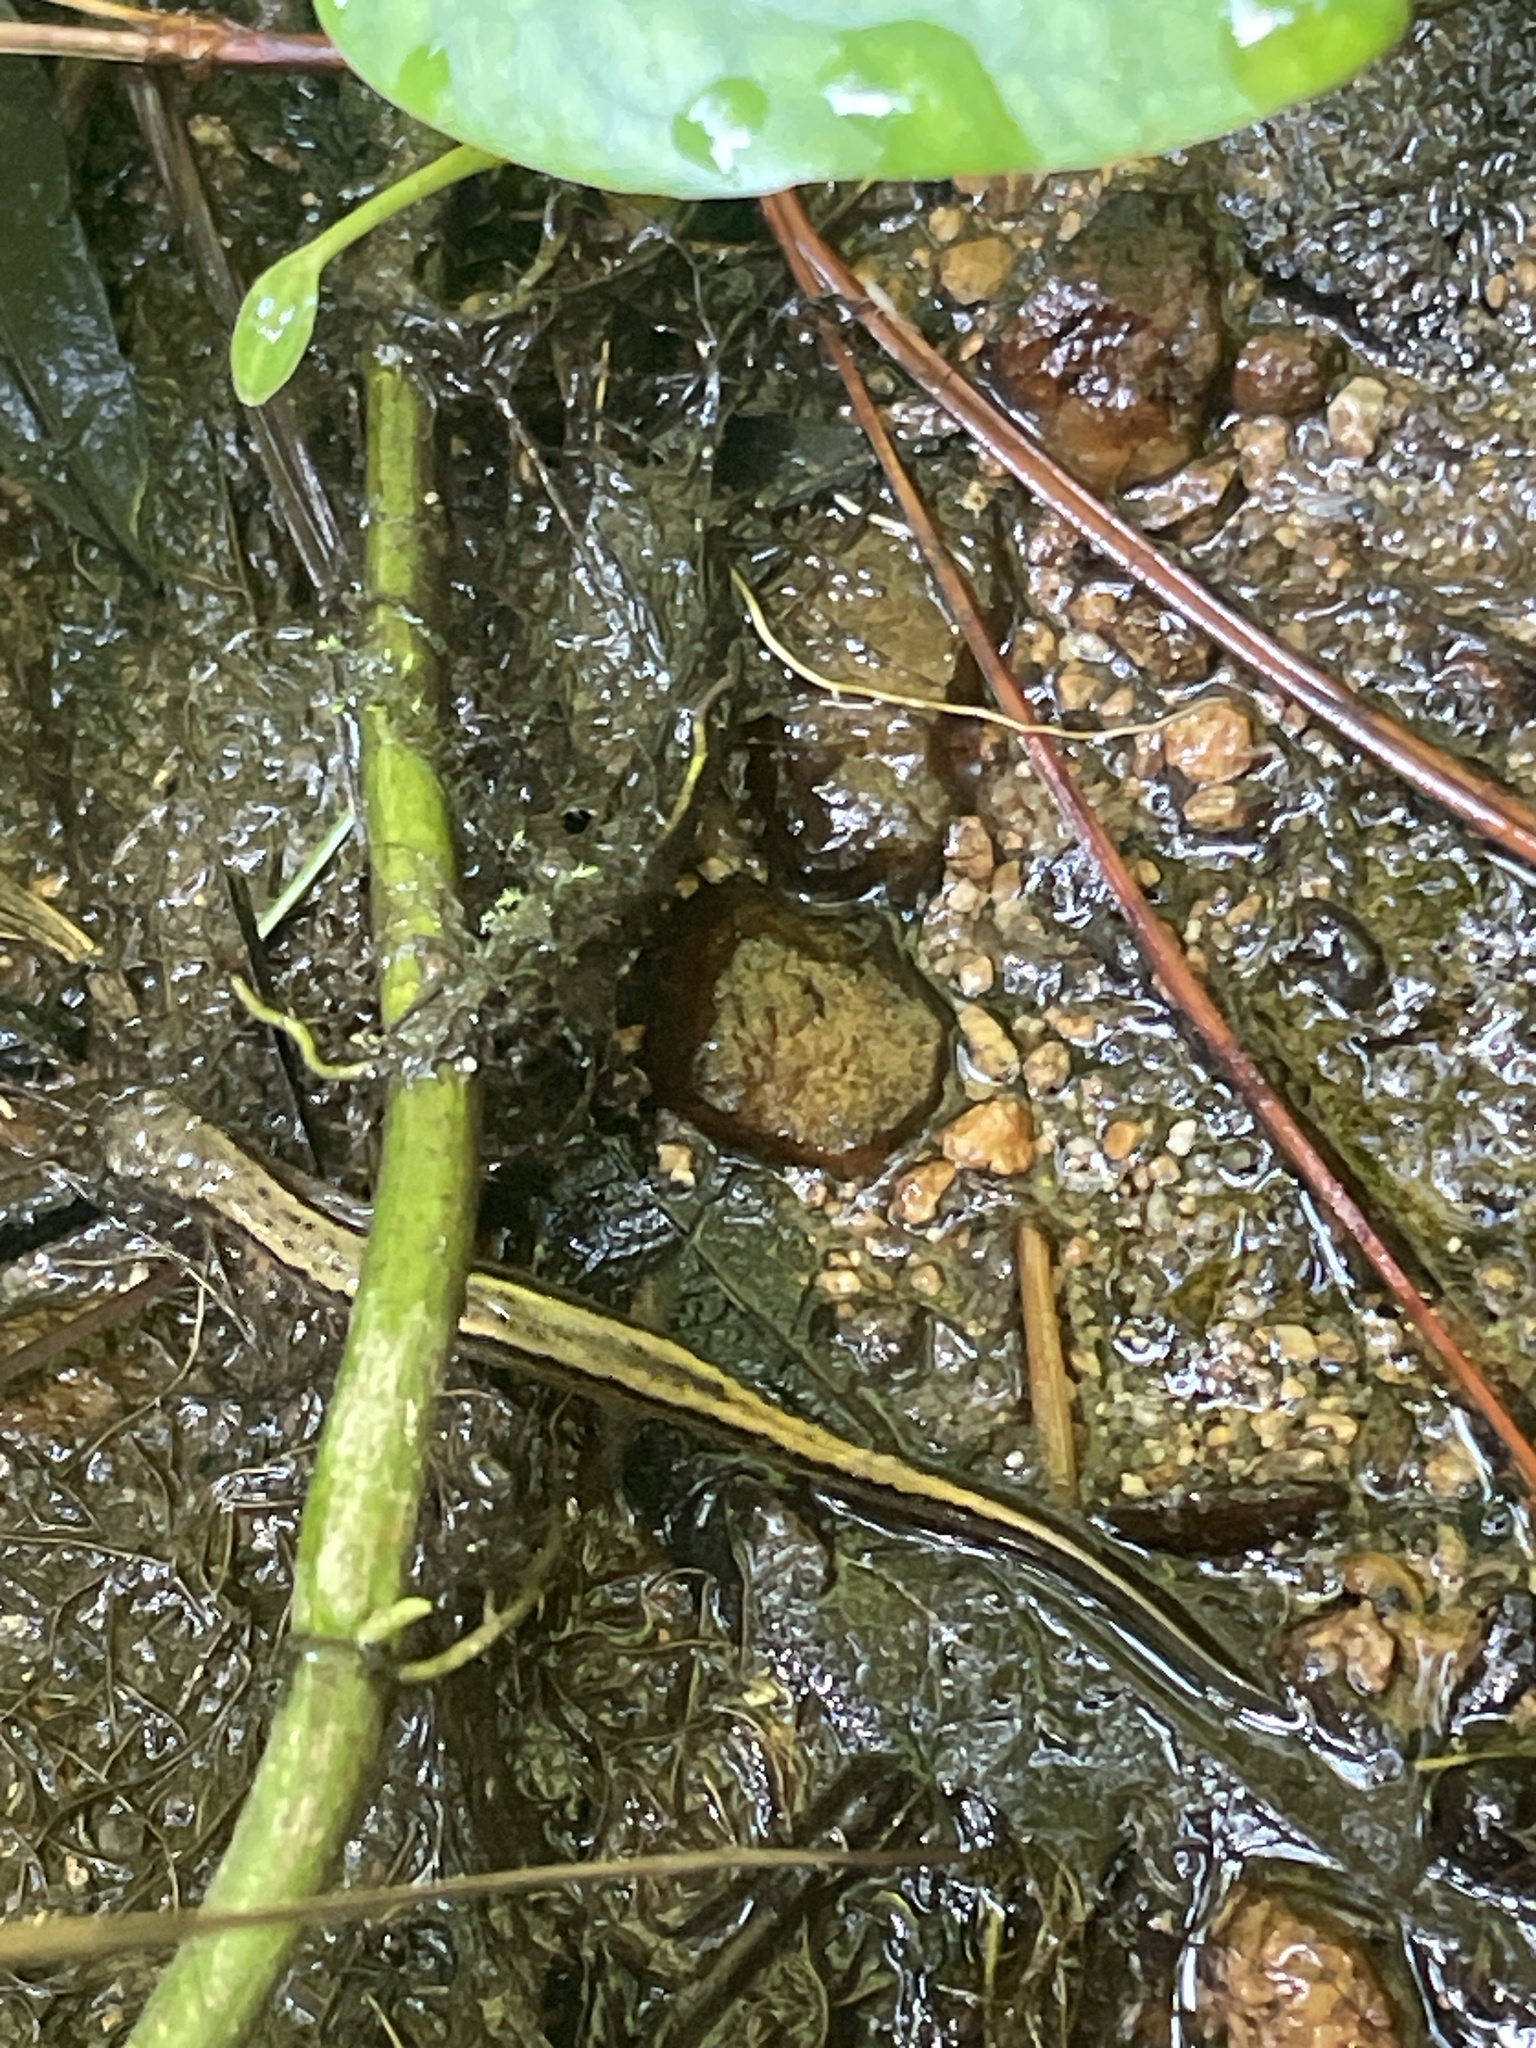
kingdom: Animalia
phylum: Chordata
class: Amphibia
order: Caudata
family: Plethodontidae
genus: Eurycea
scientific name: Eurycea cirrigera
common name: Southern two-lined salamander
